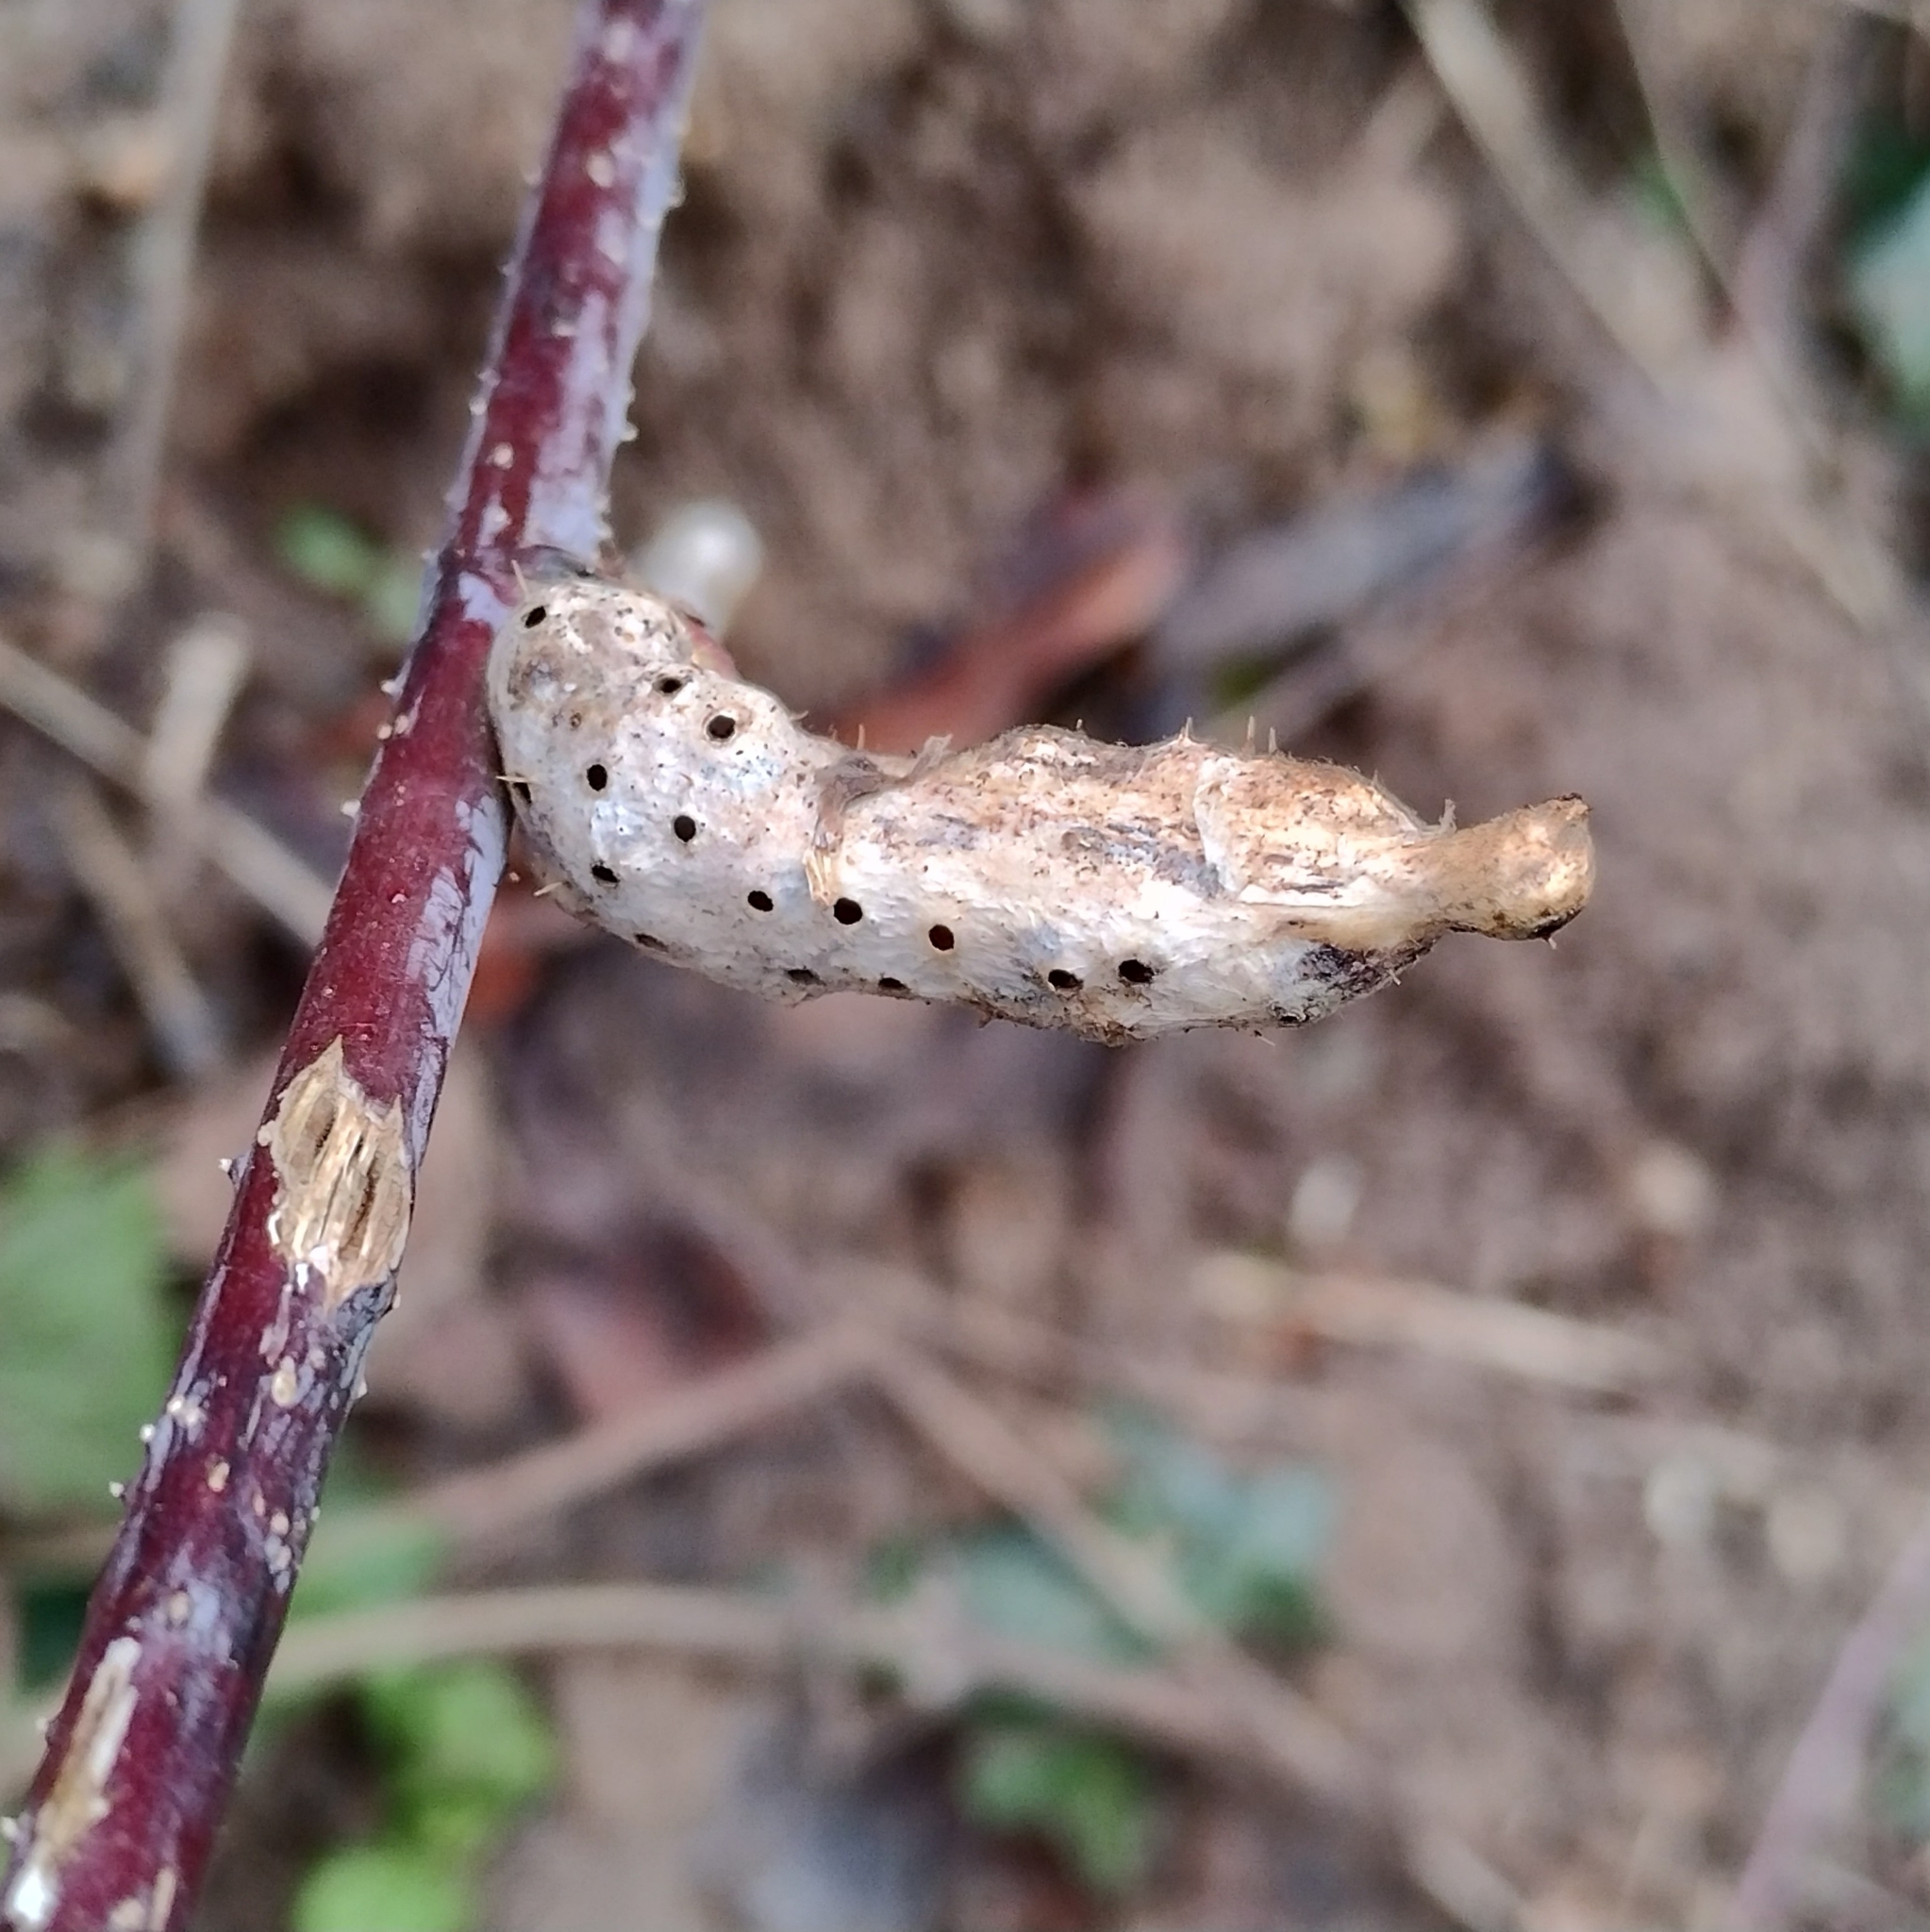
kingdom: Animalia
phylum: Arthropoda
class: Insecta
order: Hymenoptera
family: Cynipidae
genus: Diastrophus
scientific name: Diastrophus rubi
